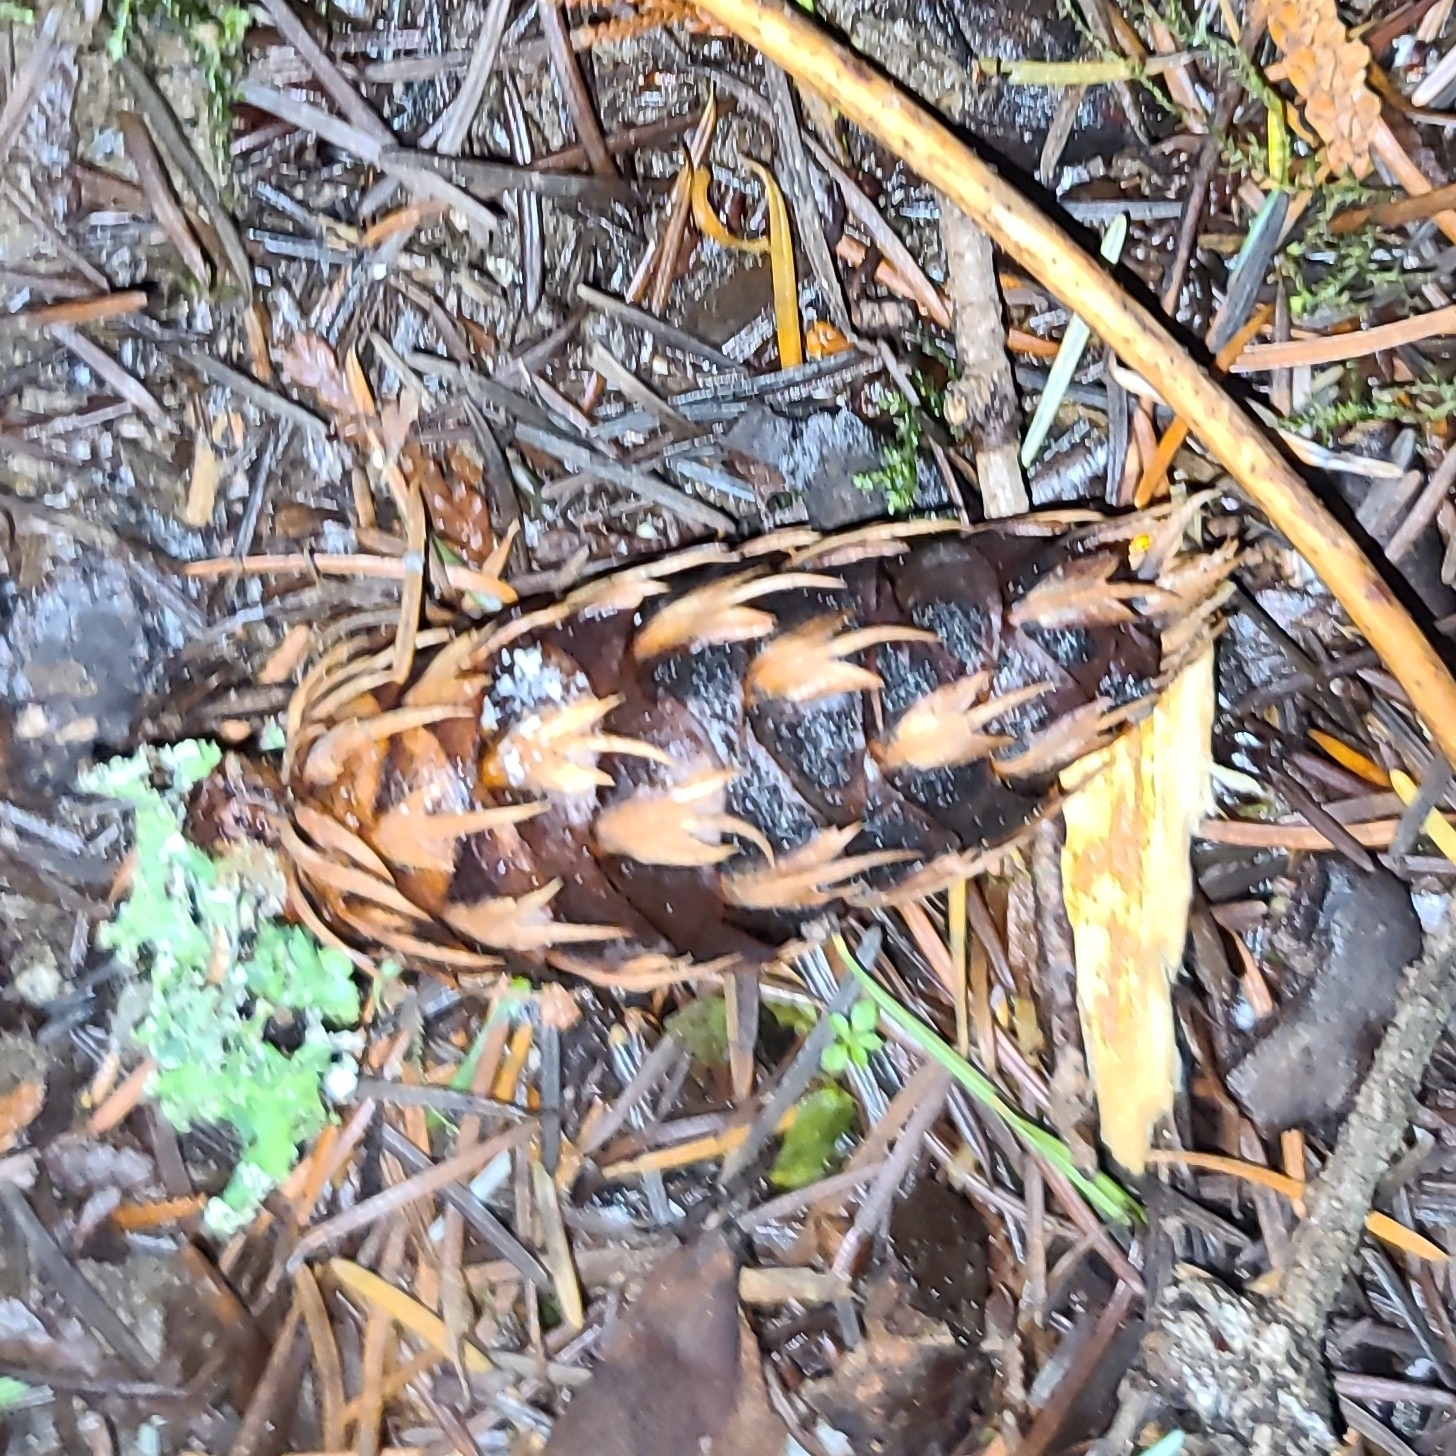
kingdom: Plantae
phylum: Tracheophyta
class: Pinopsida
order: Pinales
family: Pinaceae
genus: Pseudotsuga
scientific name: Pseudotsuga menziesii
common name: Douglas fir
